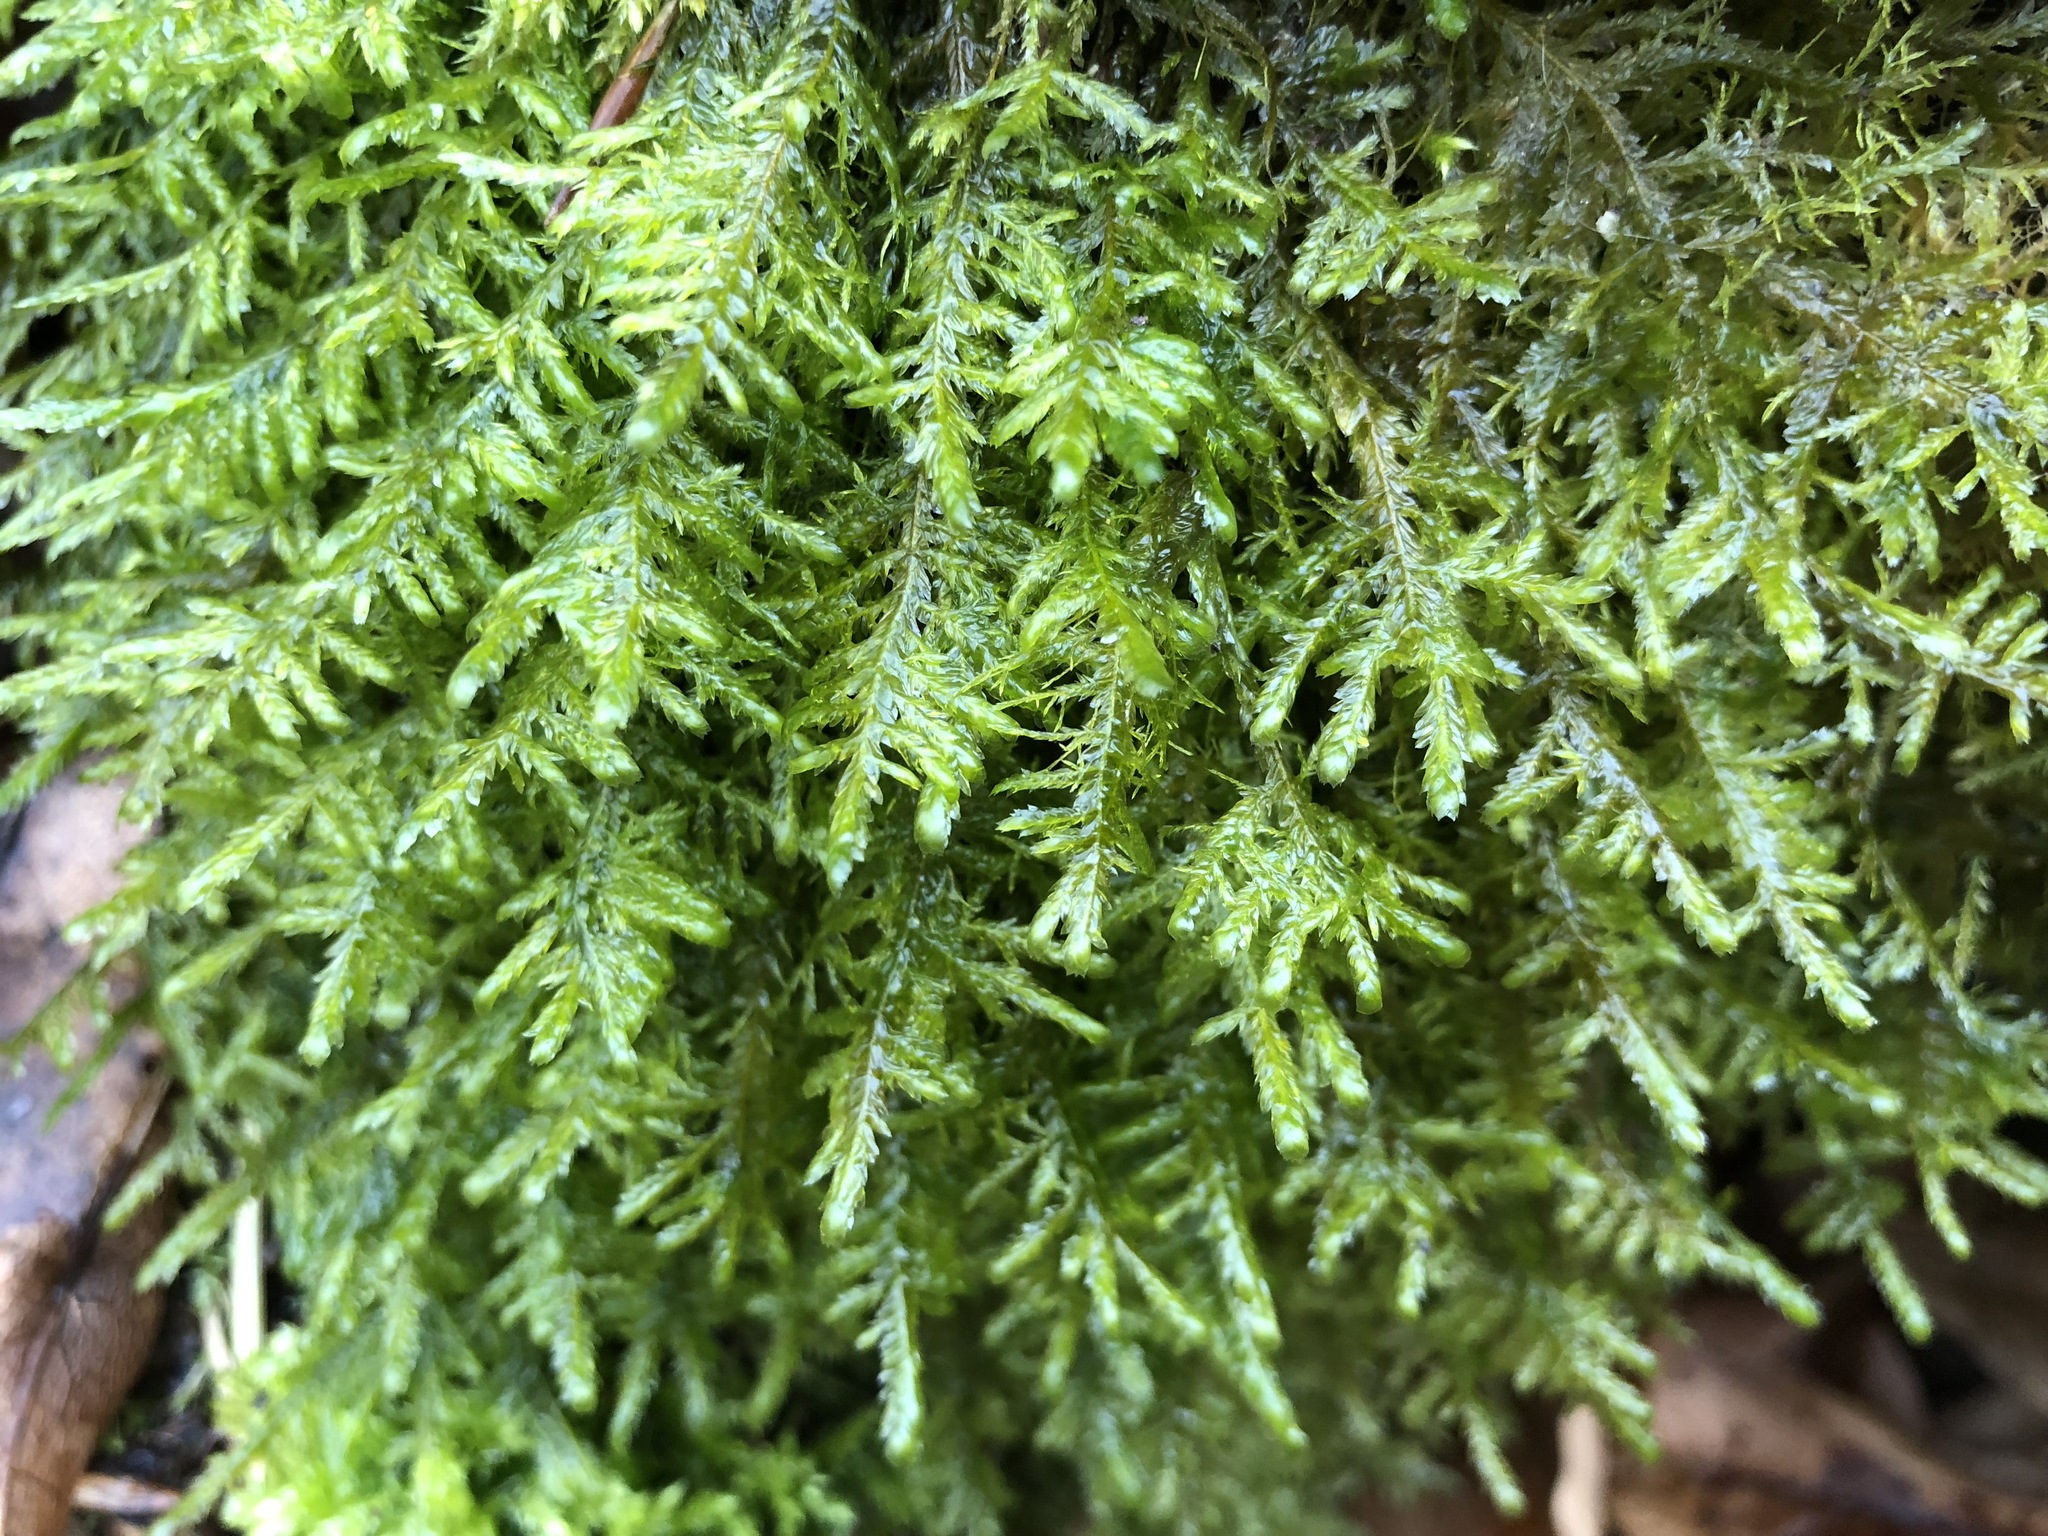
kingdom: Plantae
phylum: Bryophyta
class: Bryopsida
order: Hypnales
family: Neckeraceae
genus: Alleniella
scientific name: Alleniella complanata
